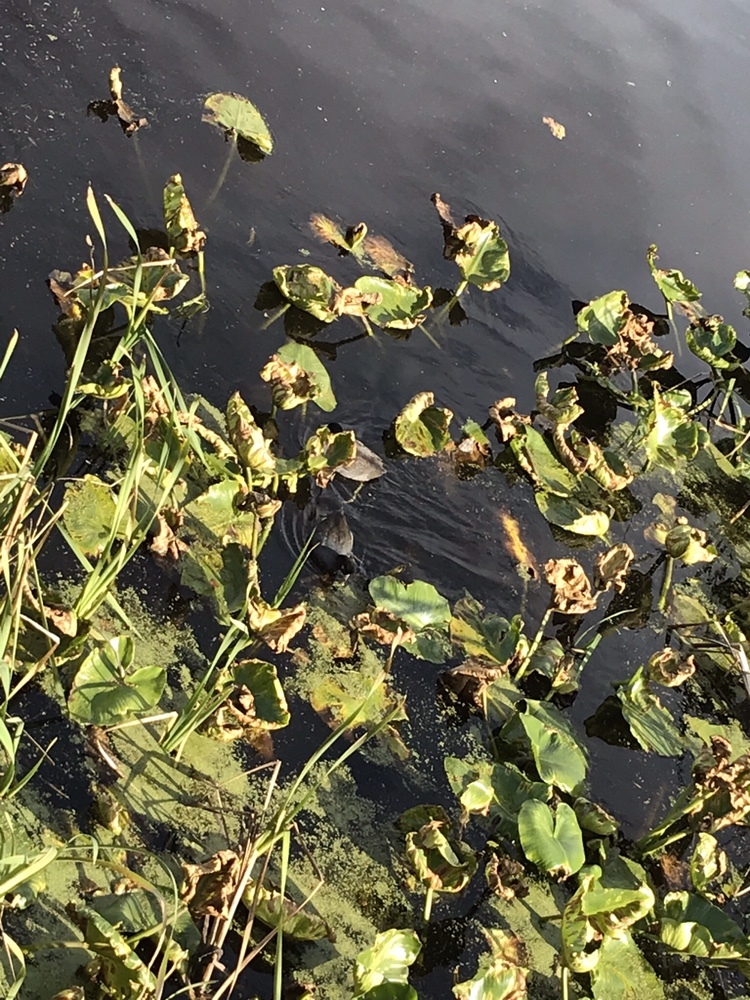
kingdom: Animalia
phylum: Chordata
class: Aves
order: Gruiformes
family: Rallidae
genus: Fulica
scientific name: Fulica americana
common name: American coot
